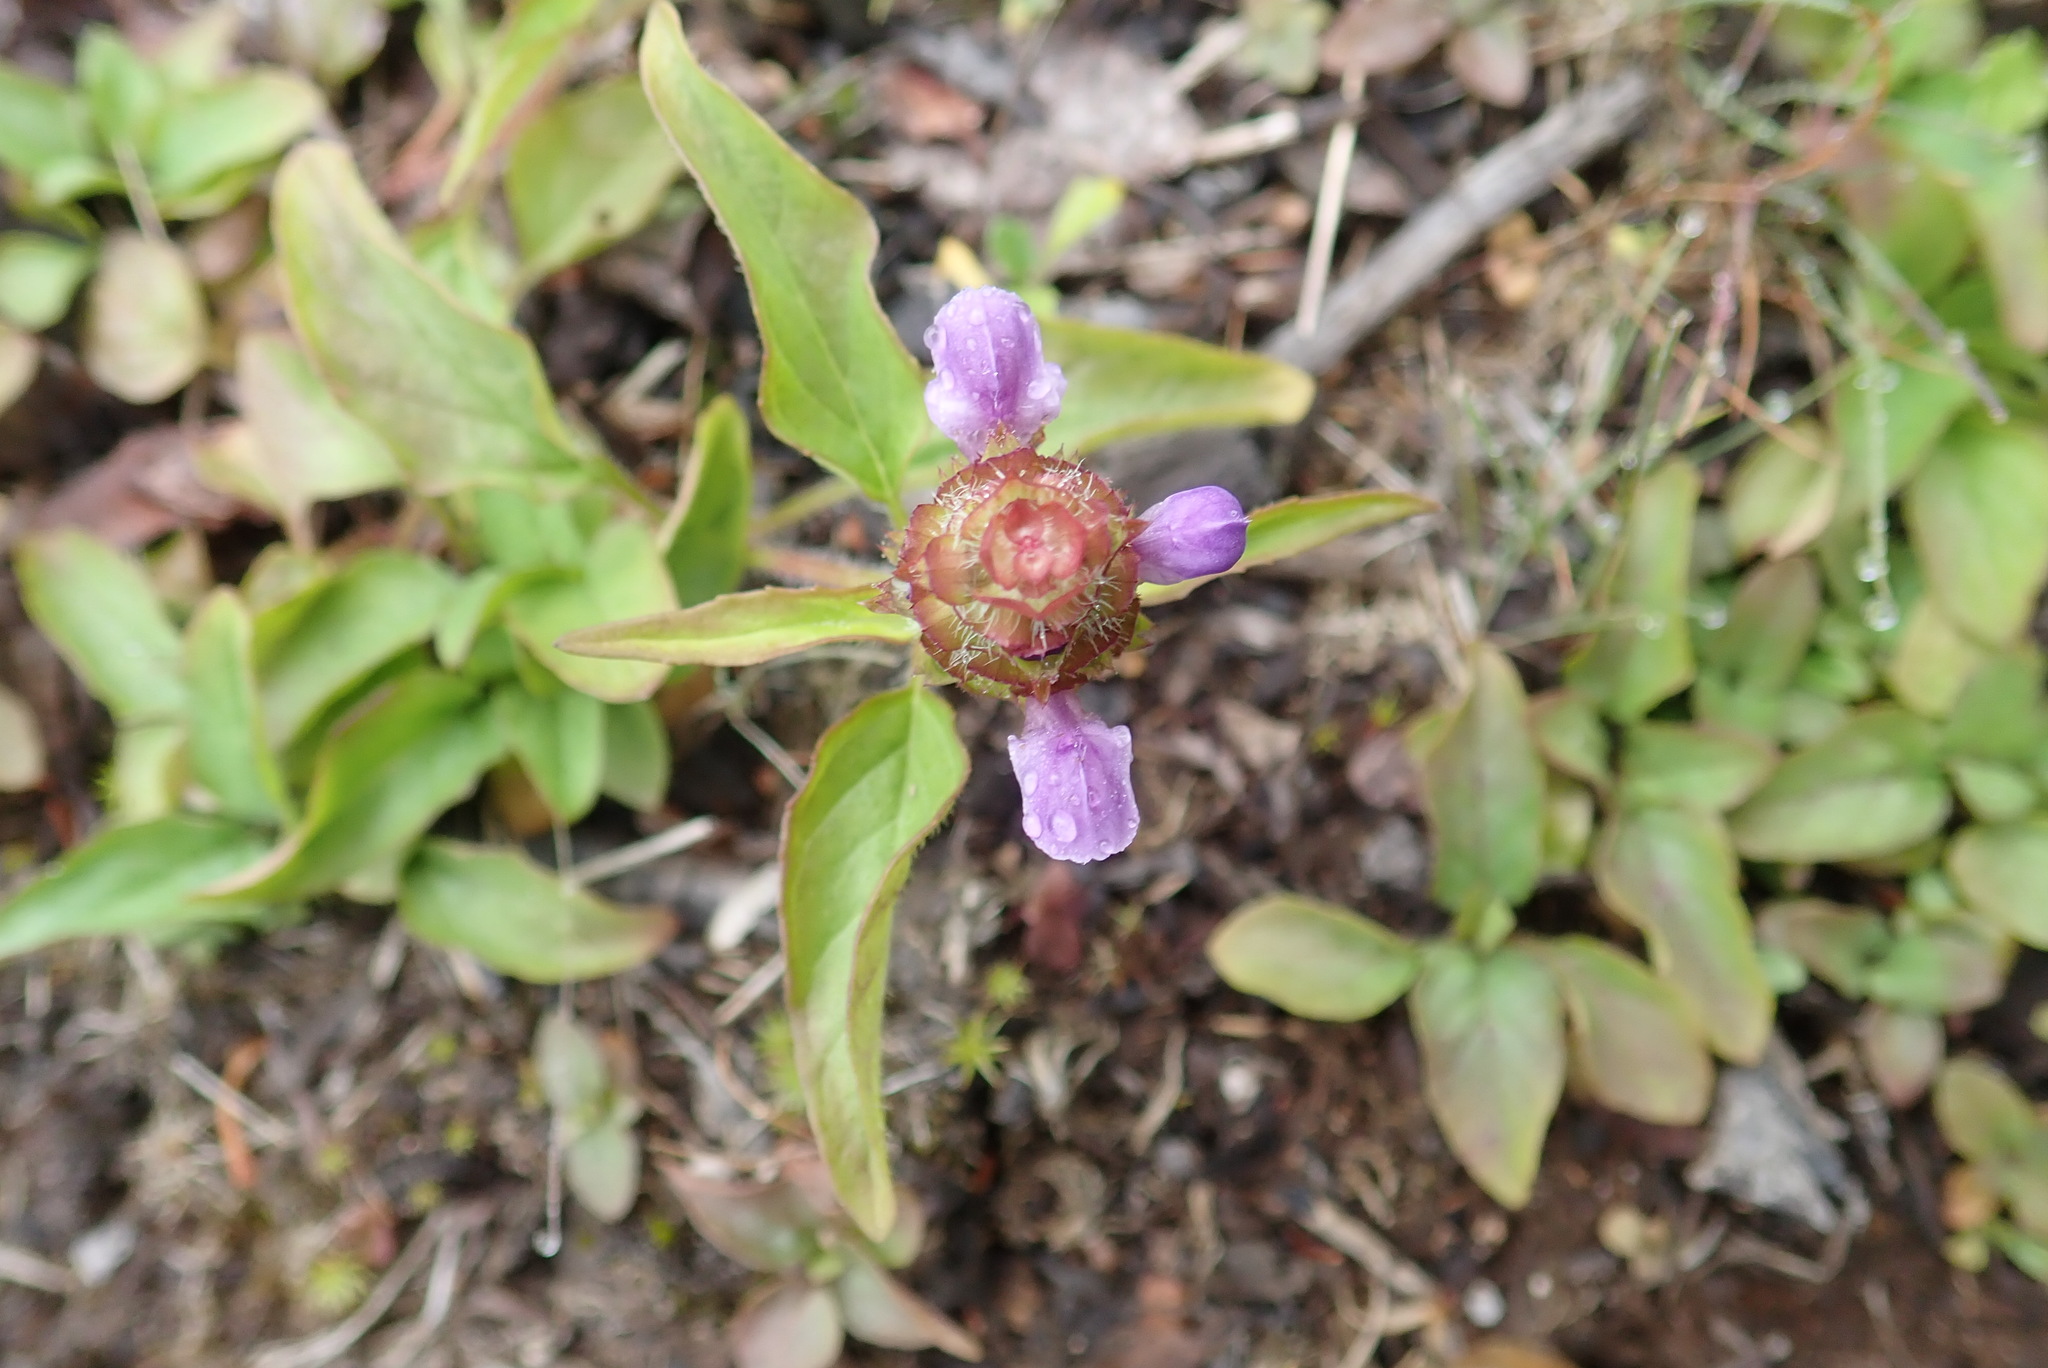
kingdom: Plantae
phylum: Tracheophyta
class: Magnoliopsida
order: Lamiales
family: Lamiaceae
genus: Prunella
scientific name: Prunella vulgaris
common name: Heal-all
